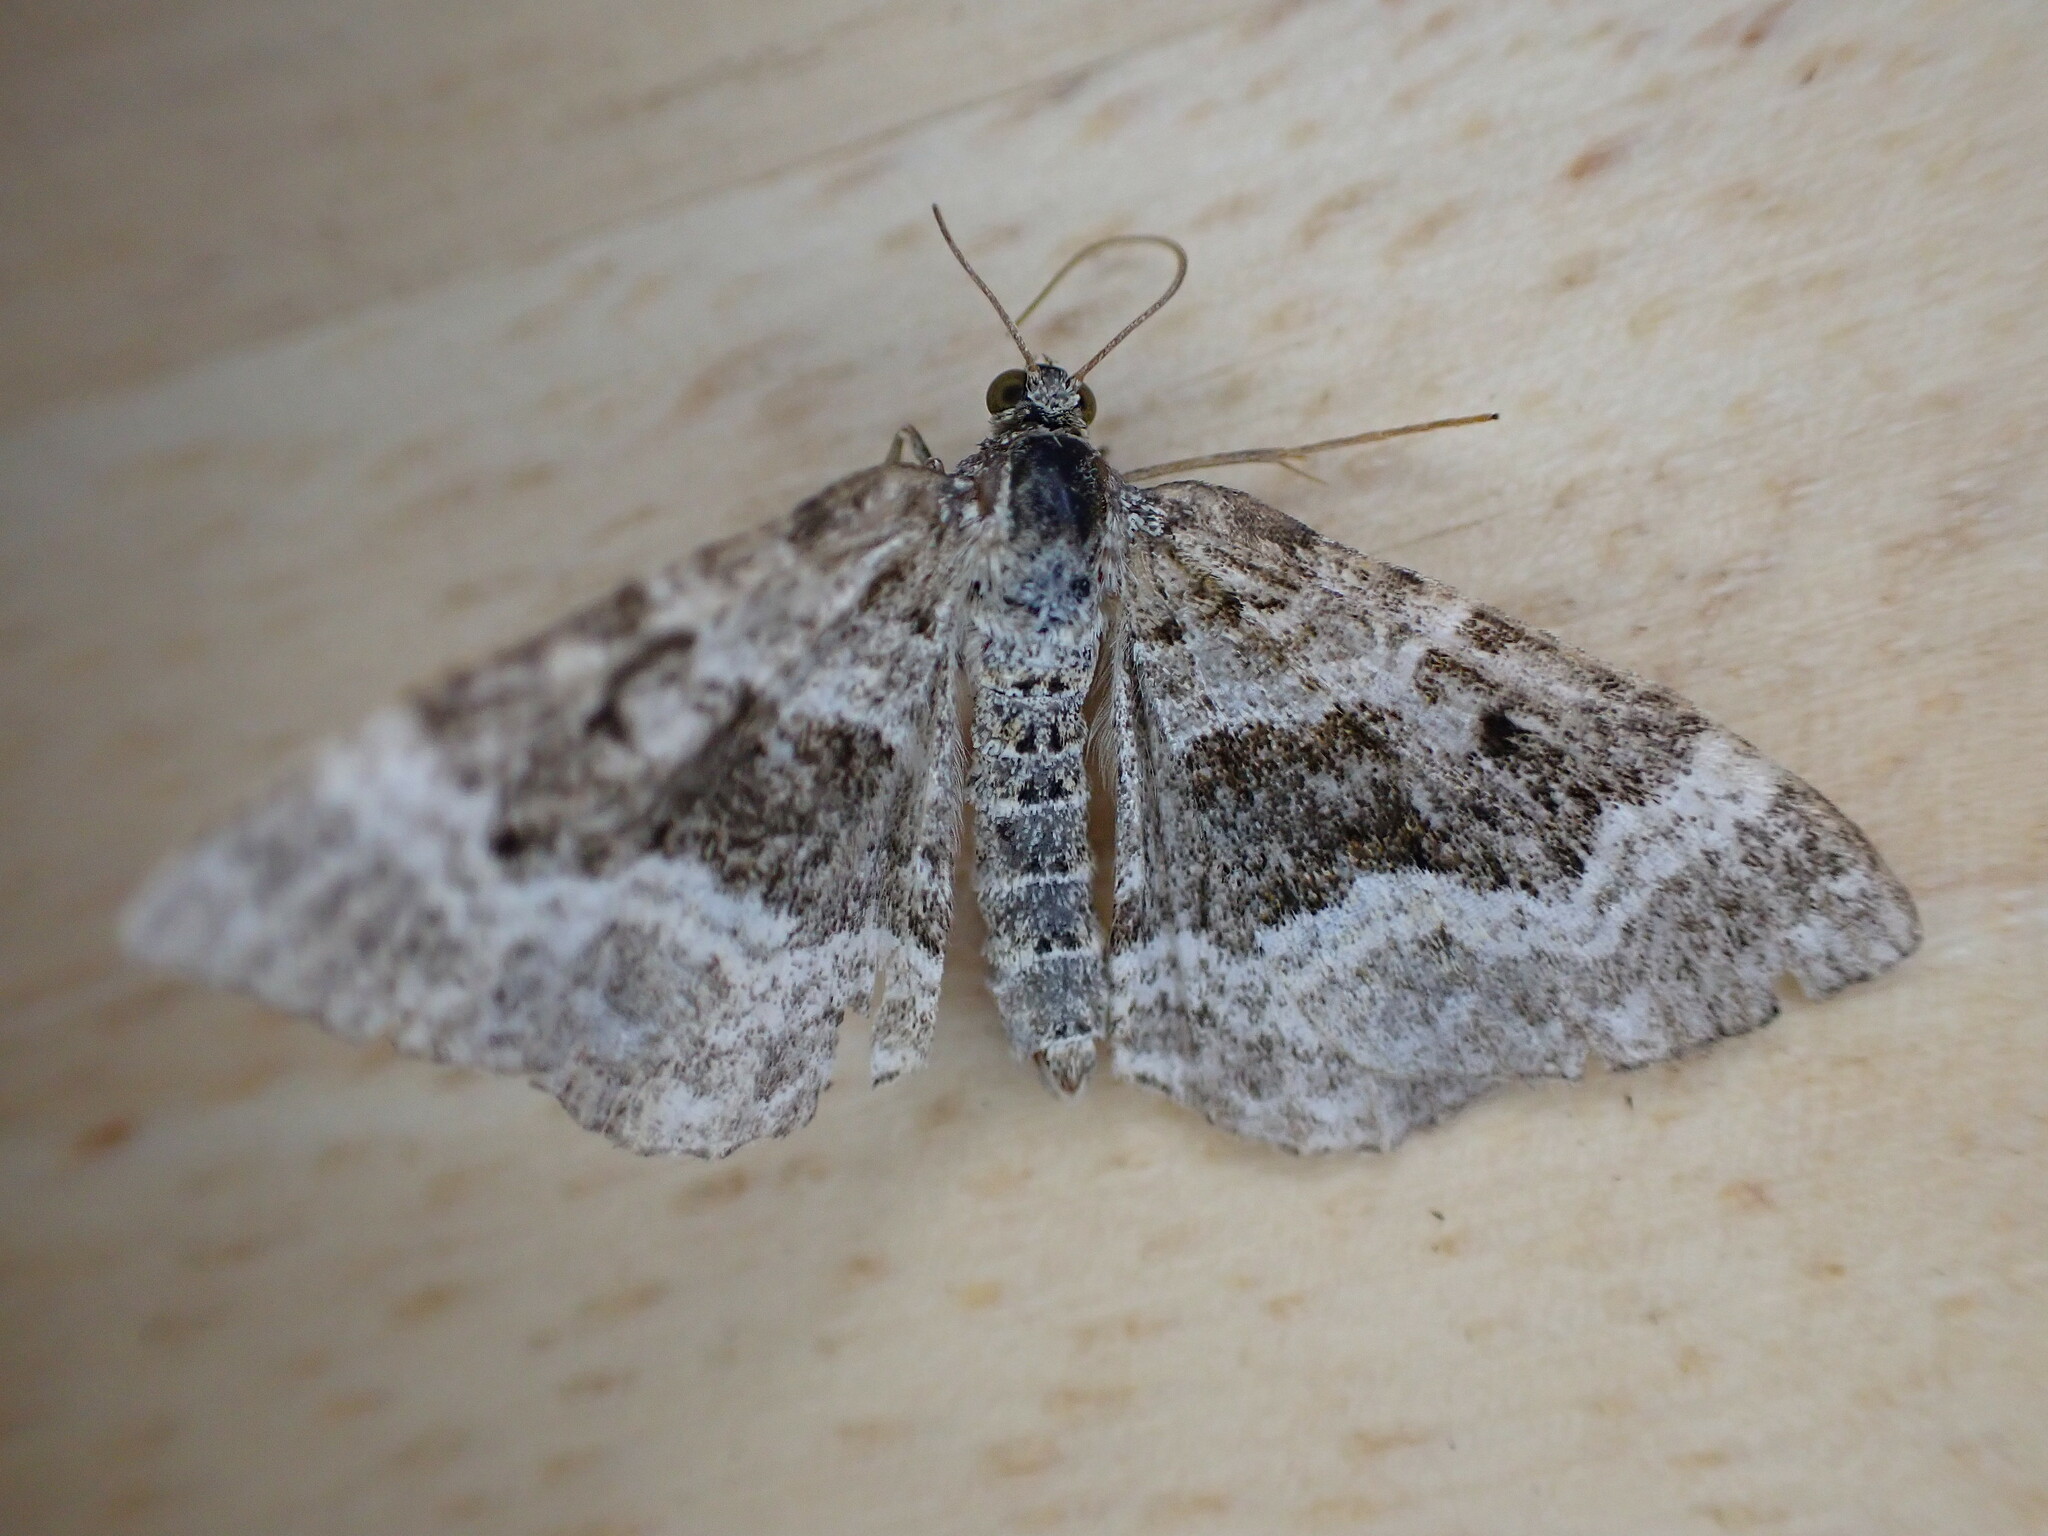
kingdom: Animalia
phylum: Arthropoda
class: Insecta
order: Lepidoptera
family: Geometridae
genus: Epirrhoe
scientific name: Epirrhoe alternata
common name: Common carpet
